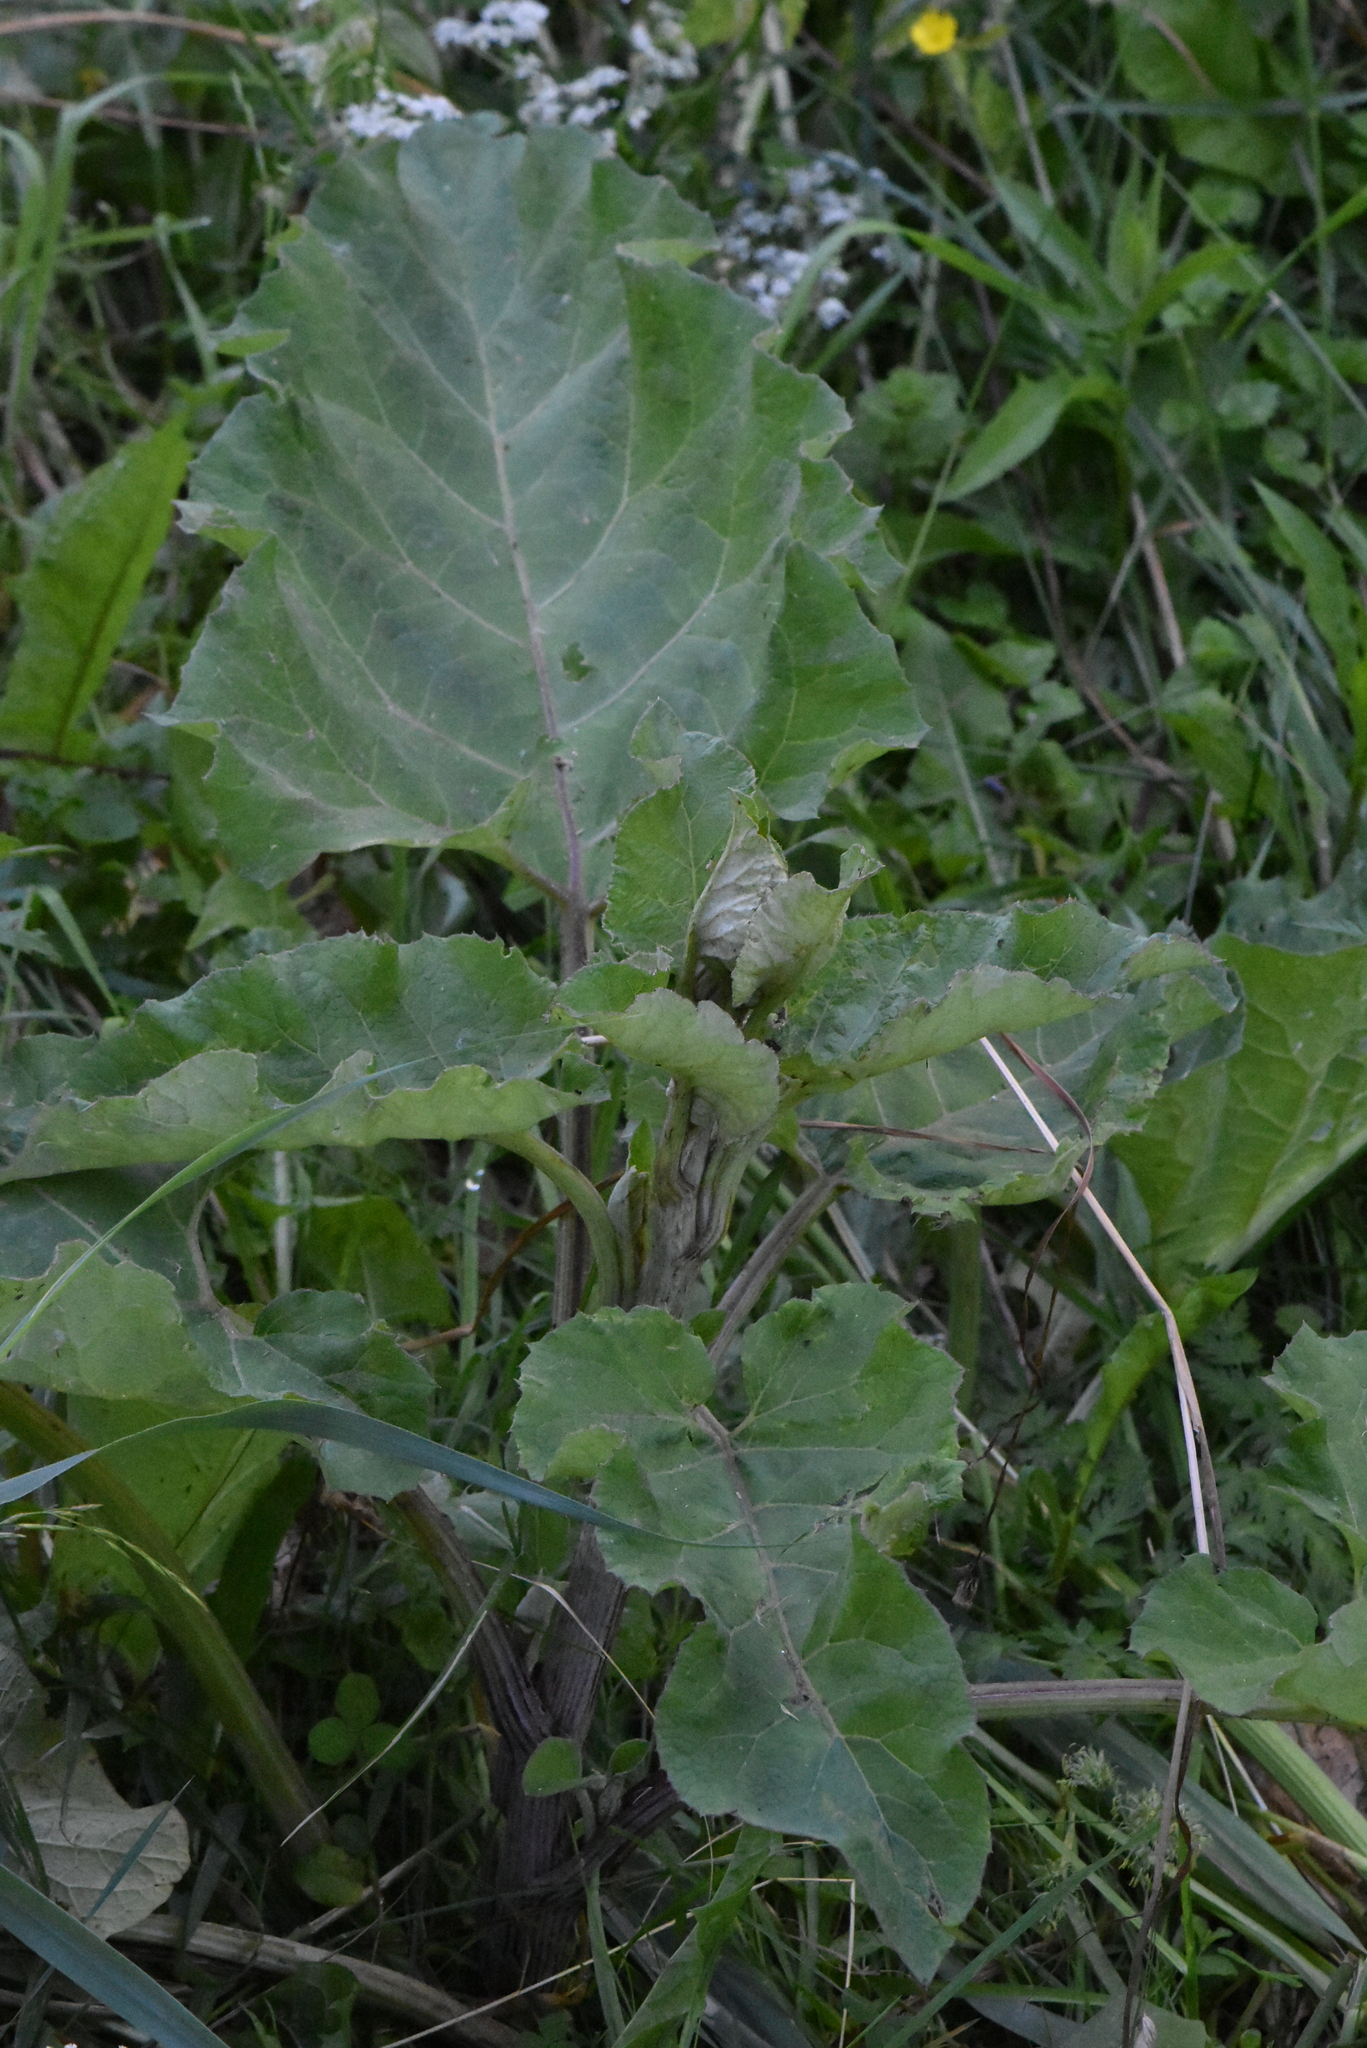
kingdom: Plantae
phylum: Tracheophyta
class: Magnoliopsida
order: Asterales
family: Asteraceae
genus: Arctium
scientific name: Arctium tomentosum
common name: Woolly burdock
